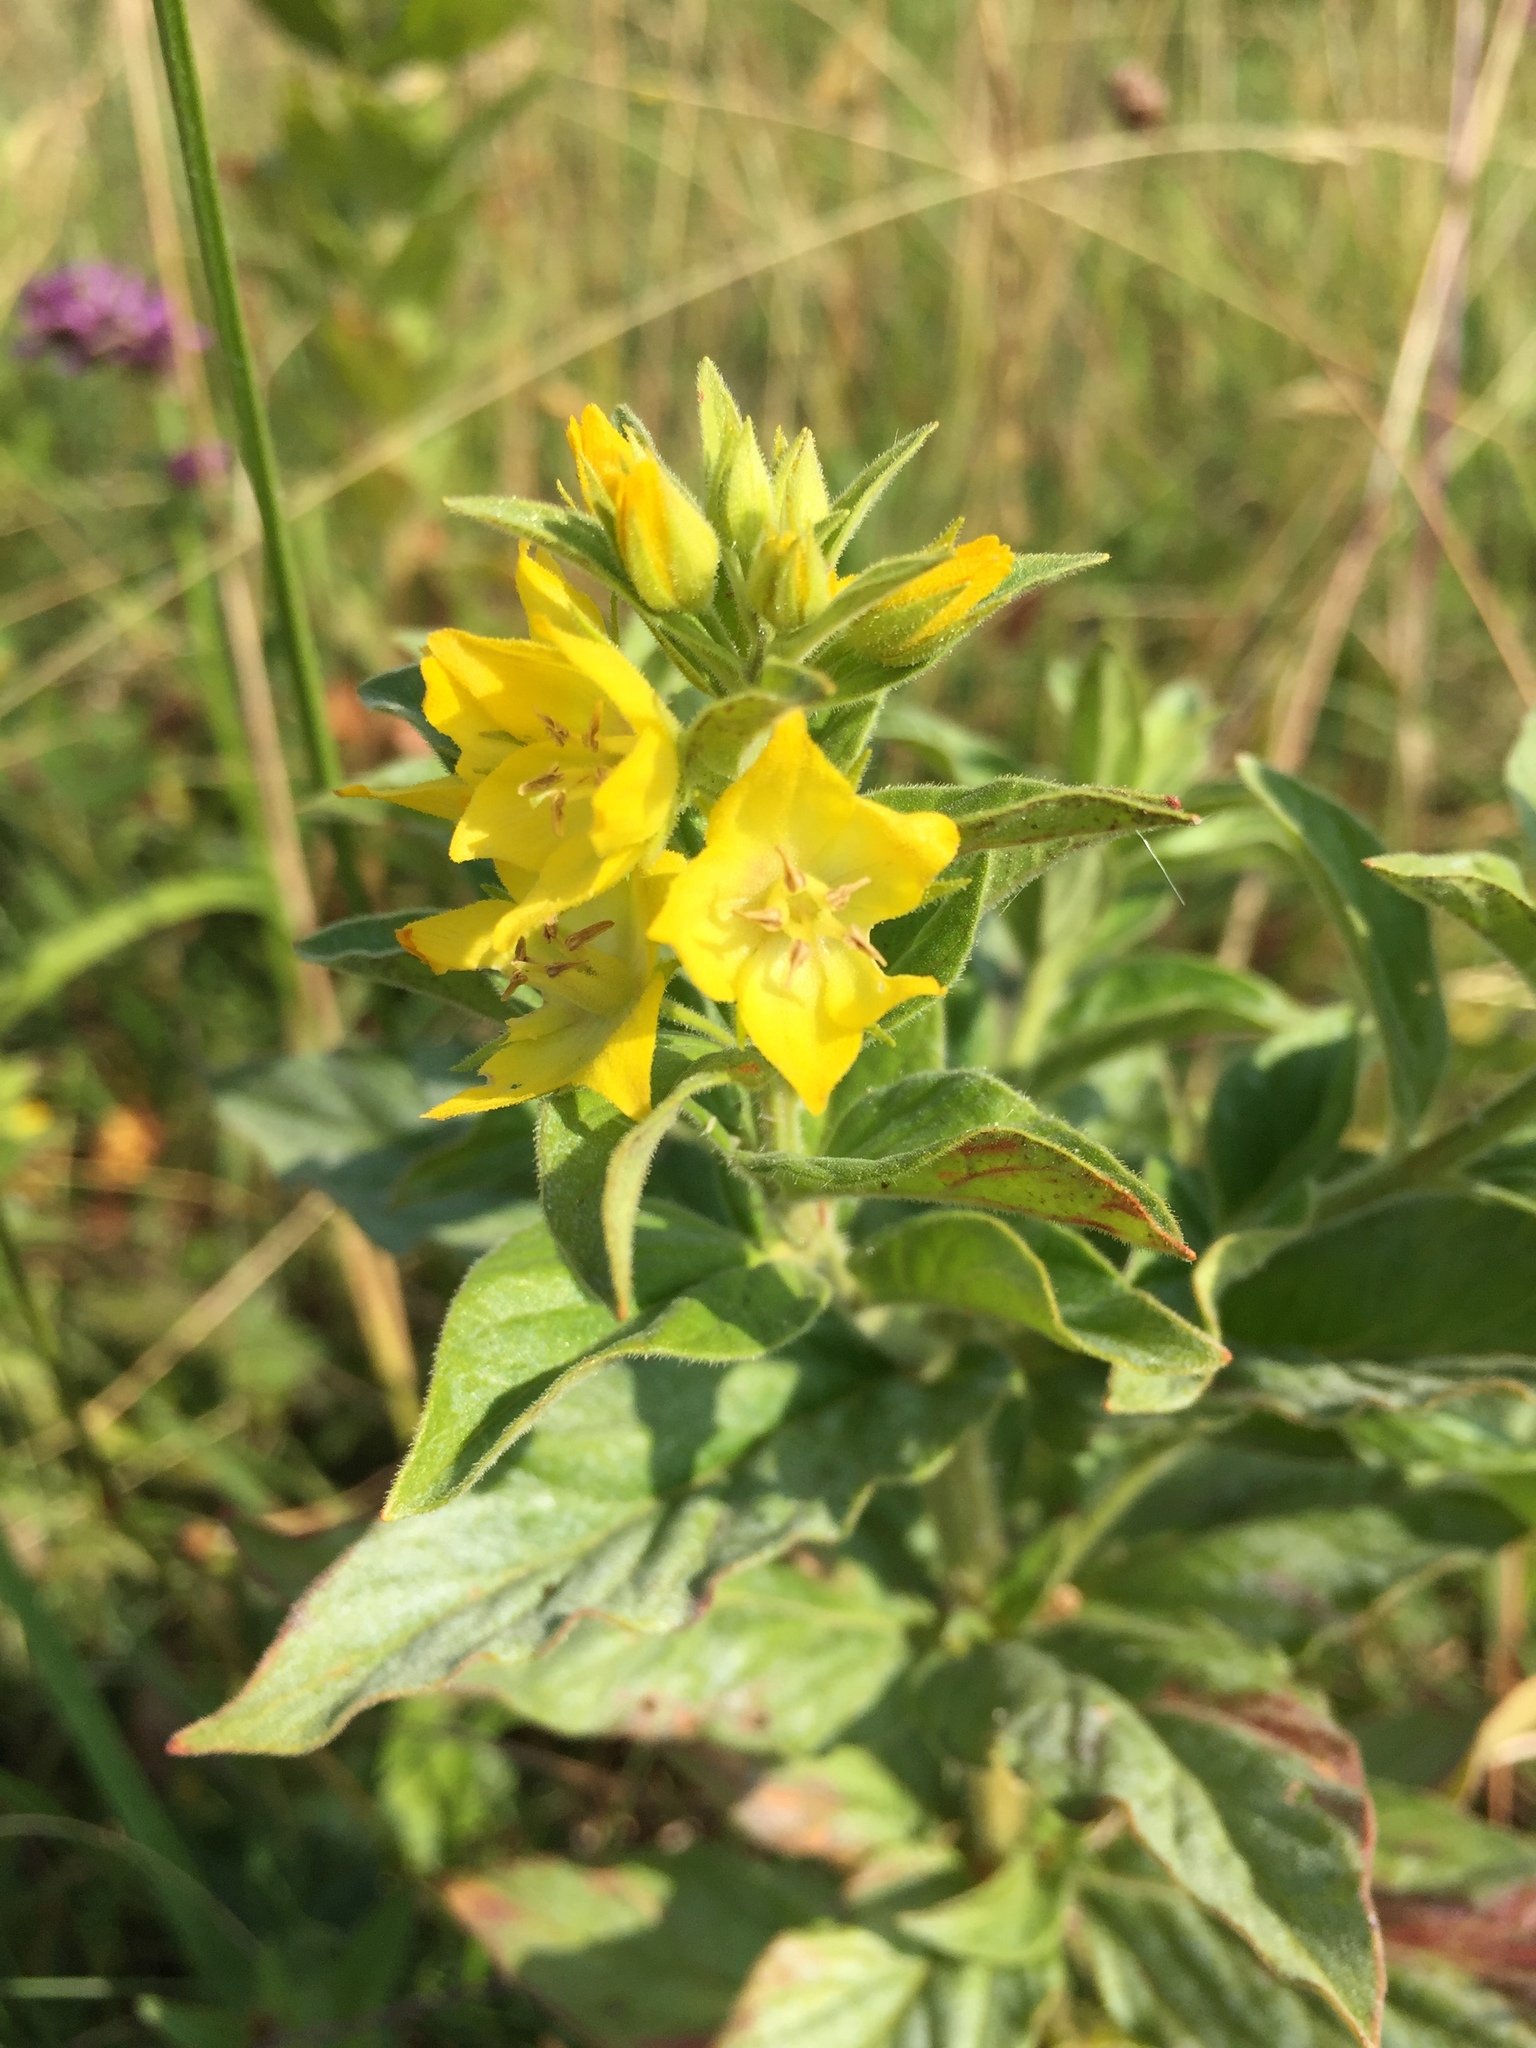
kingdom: Plantae
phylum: Tracheophyta
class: Magnoliopsida
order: Ericales
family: Primulaceae
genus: Lysimachia
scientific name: Lysimachia punctata
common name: Dotted loosestrife
